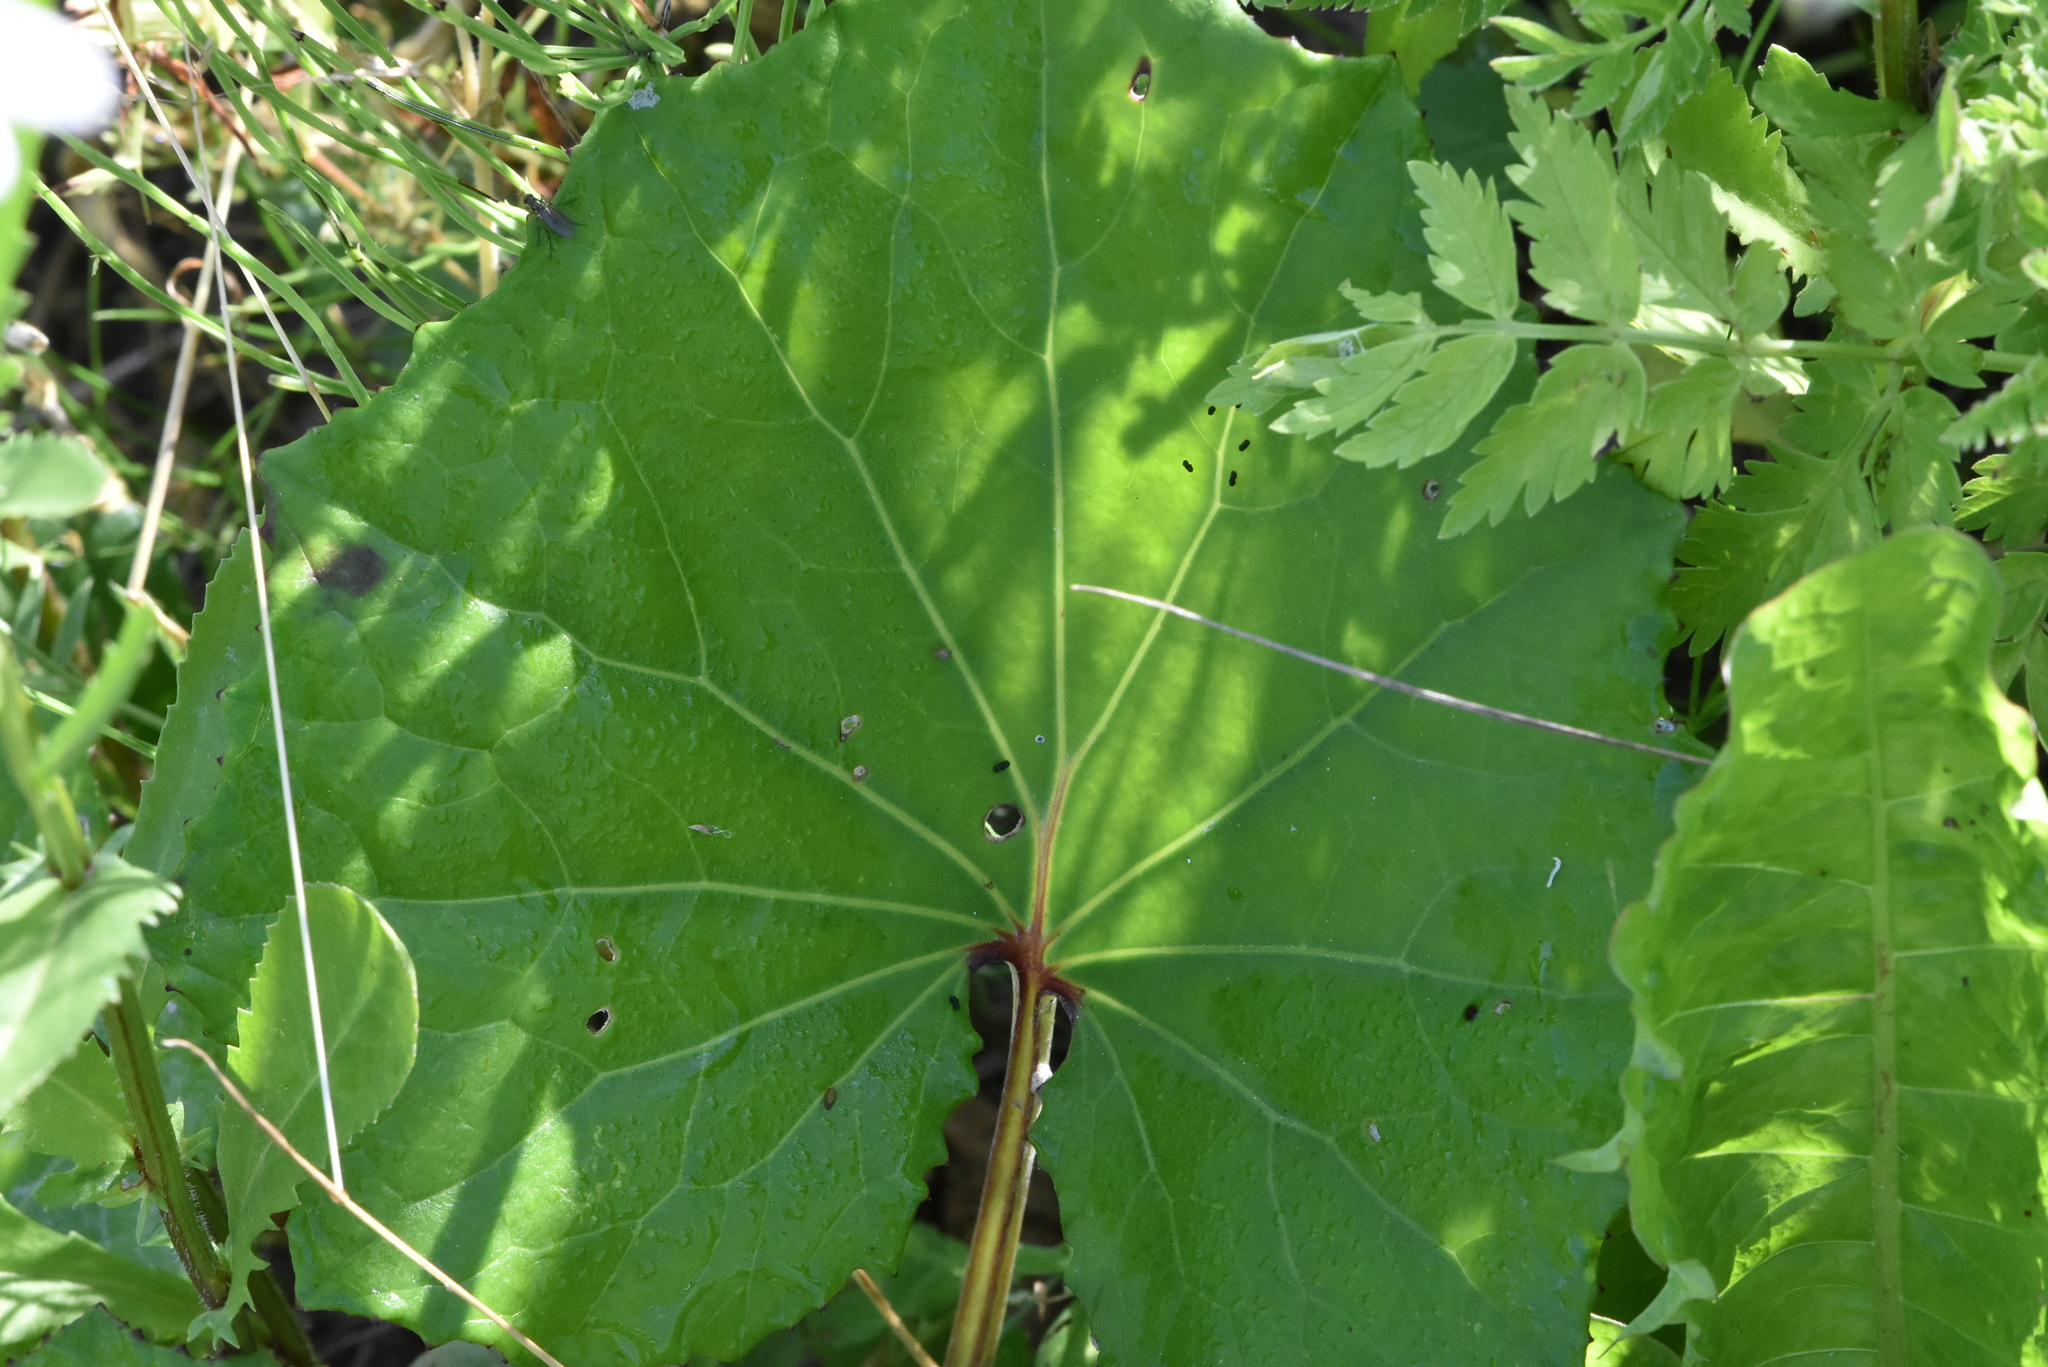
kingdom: Plantae
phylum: Tracheophyta
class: Magnoliopsida
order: Asterales
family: Asteraceae
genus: Tussilago
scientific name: Tussilago farfara
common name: Coltsfoot
